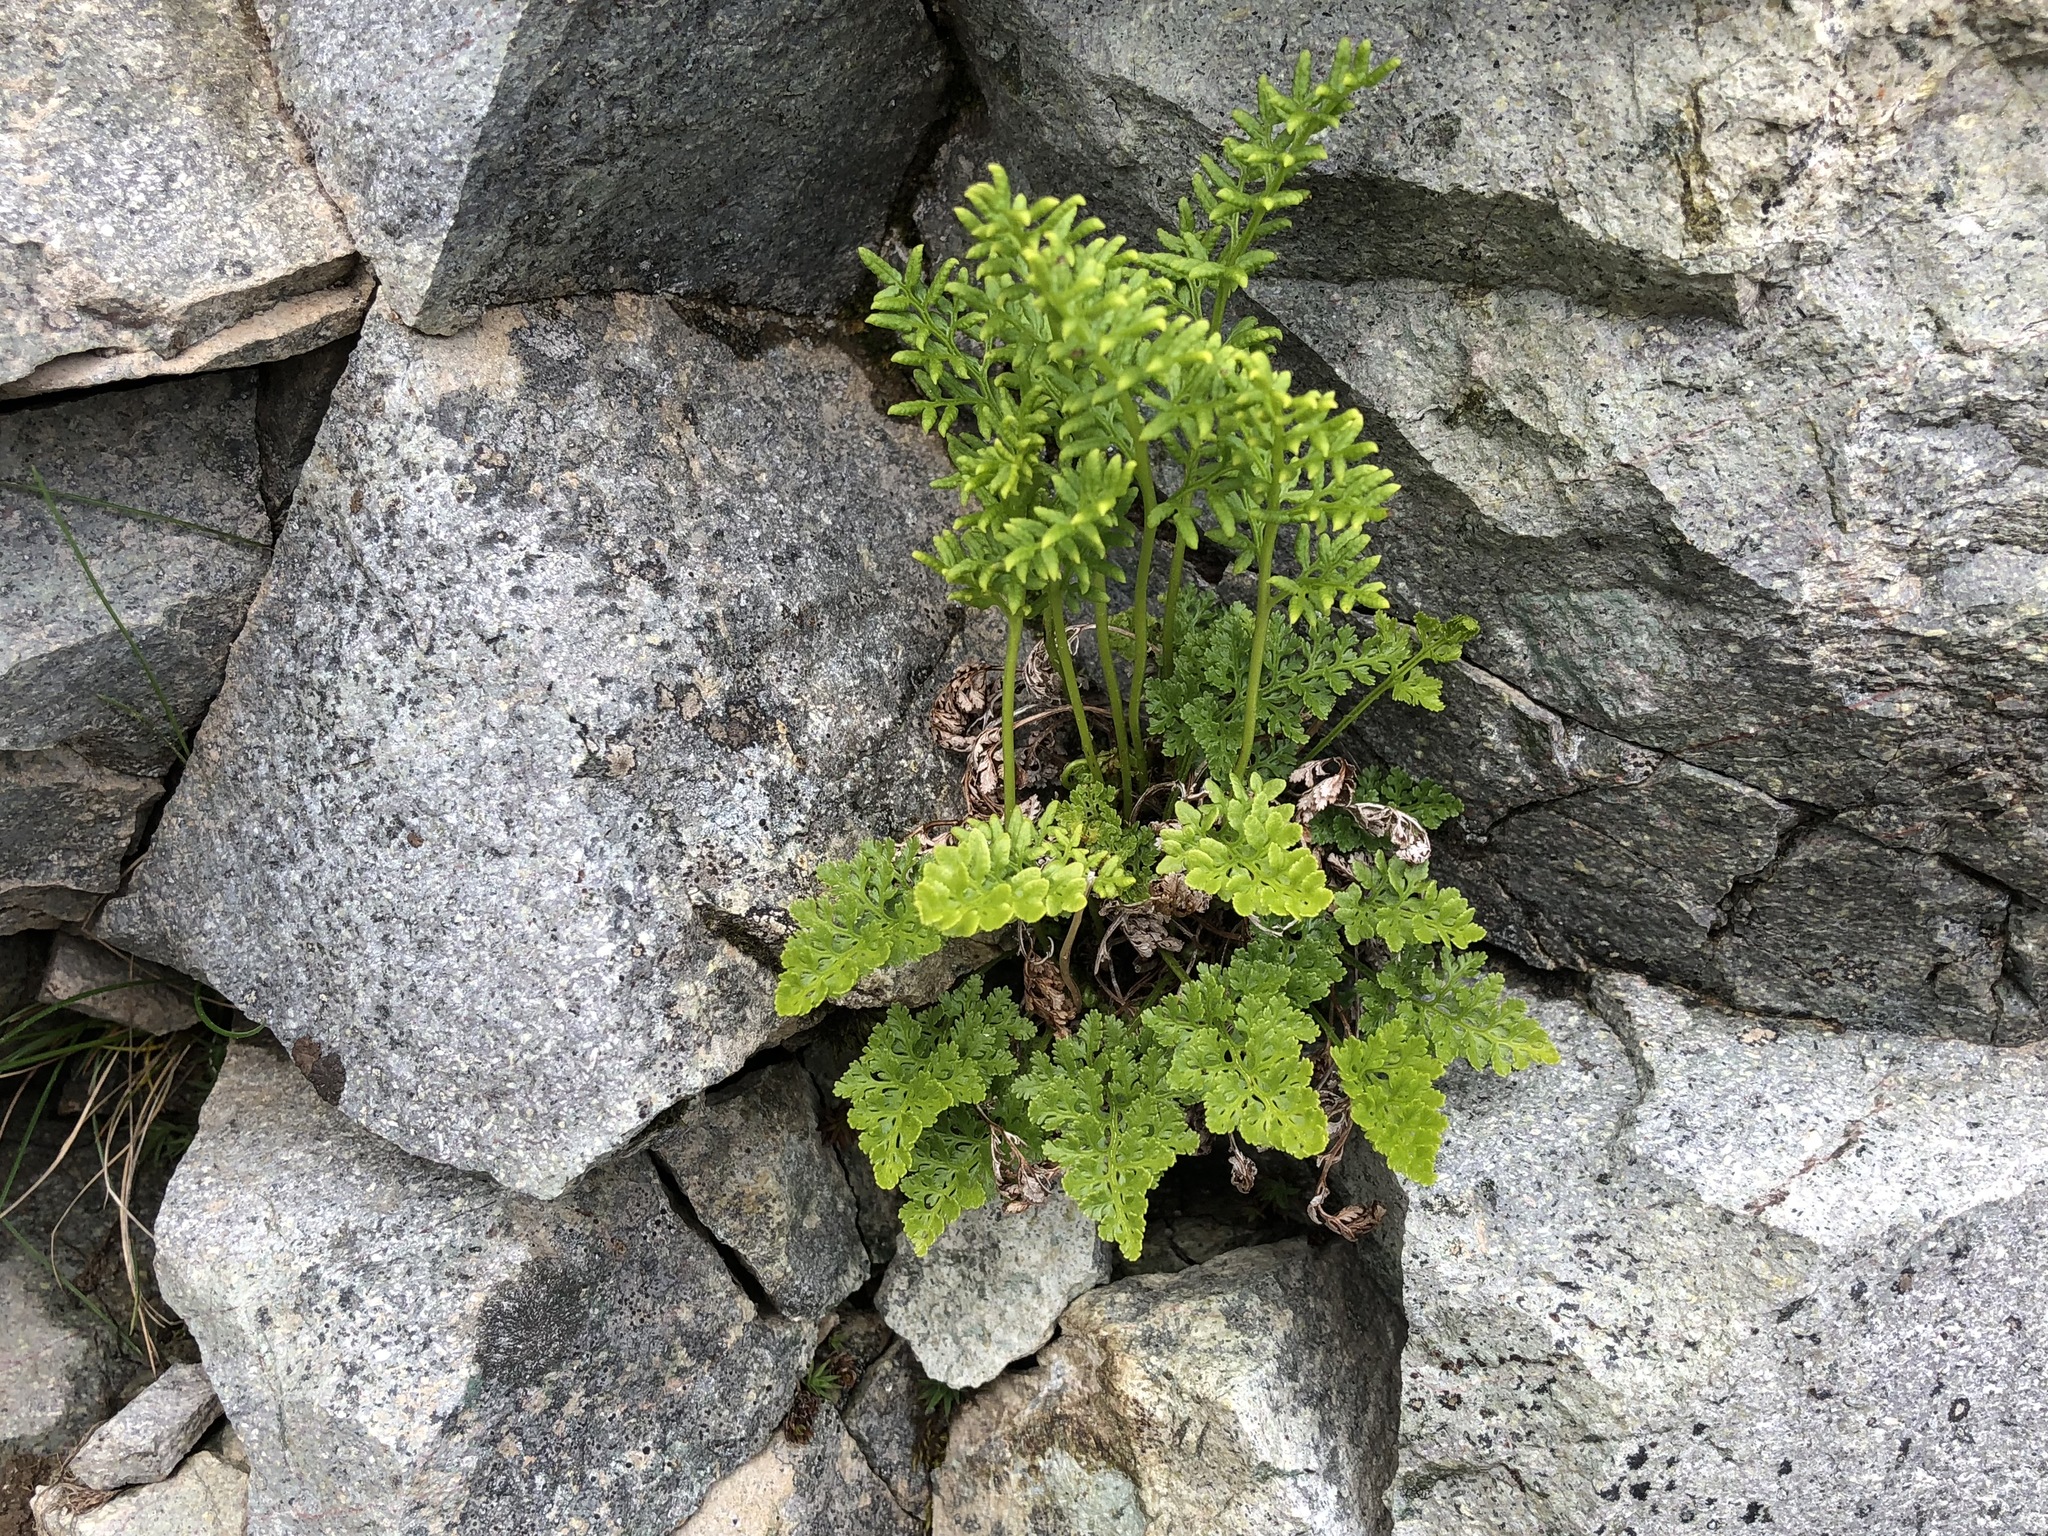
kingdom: Plantae
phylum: Tracheophyta
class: Polypodiopsida
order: Polypodiales
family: Pteridaceae
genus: Cryptogramma
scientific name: Cryptogramma sitchensis
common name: Alaska parsley fern
